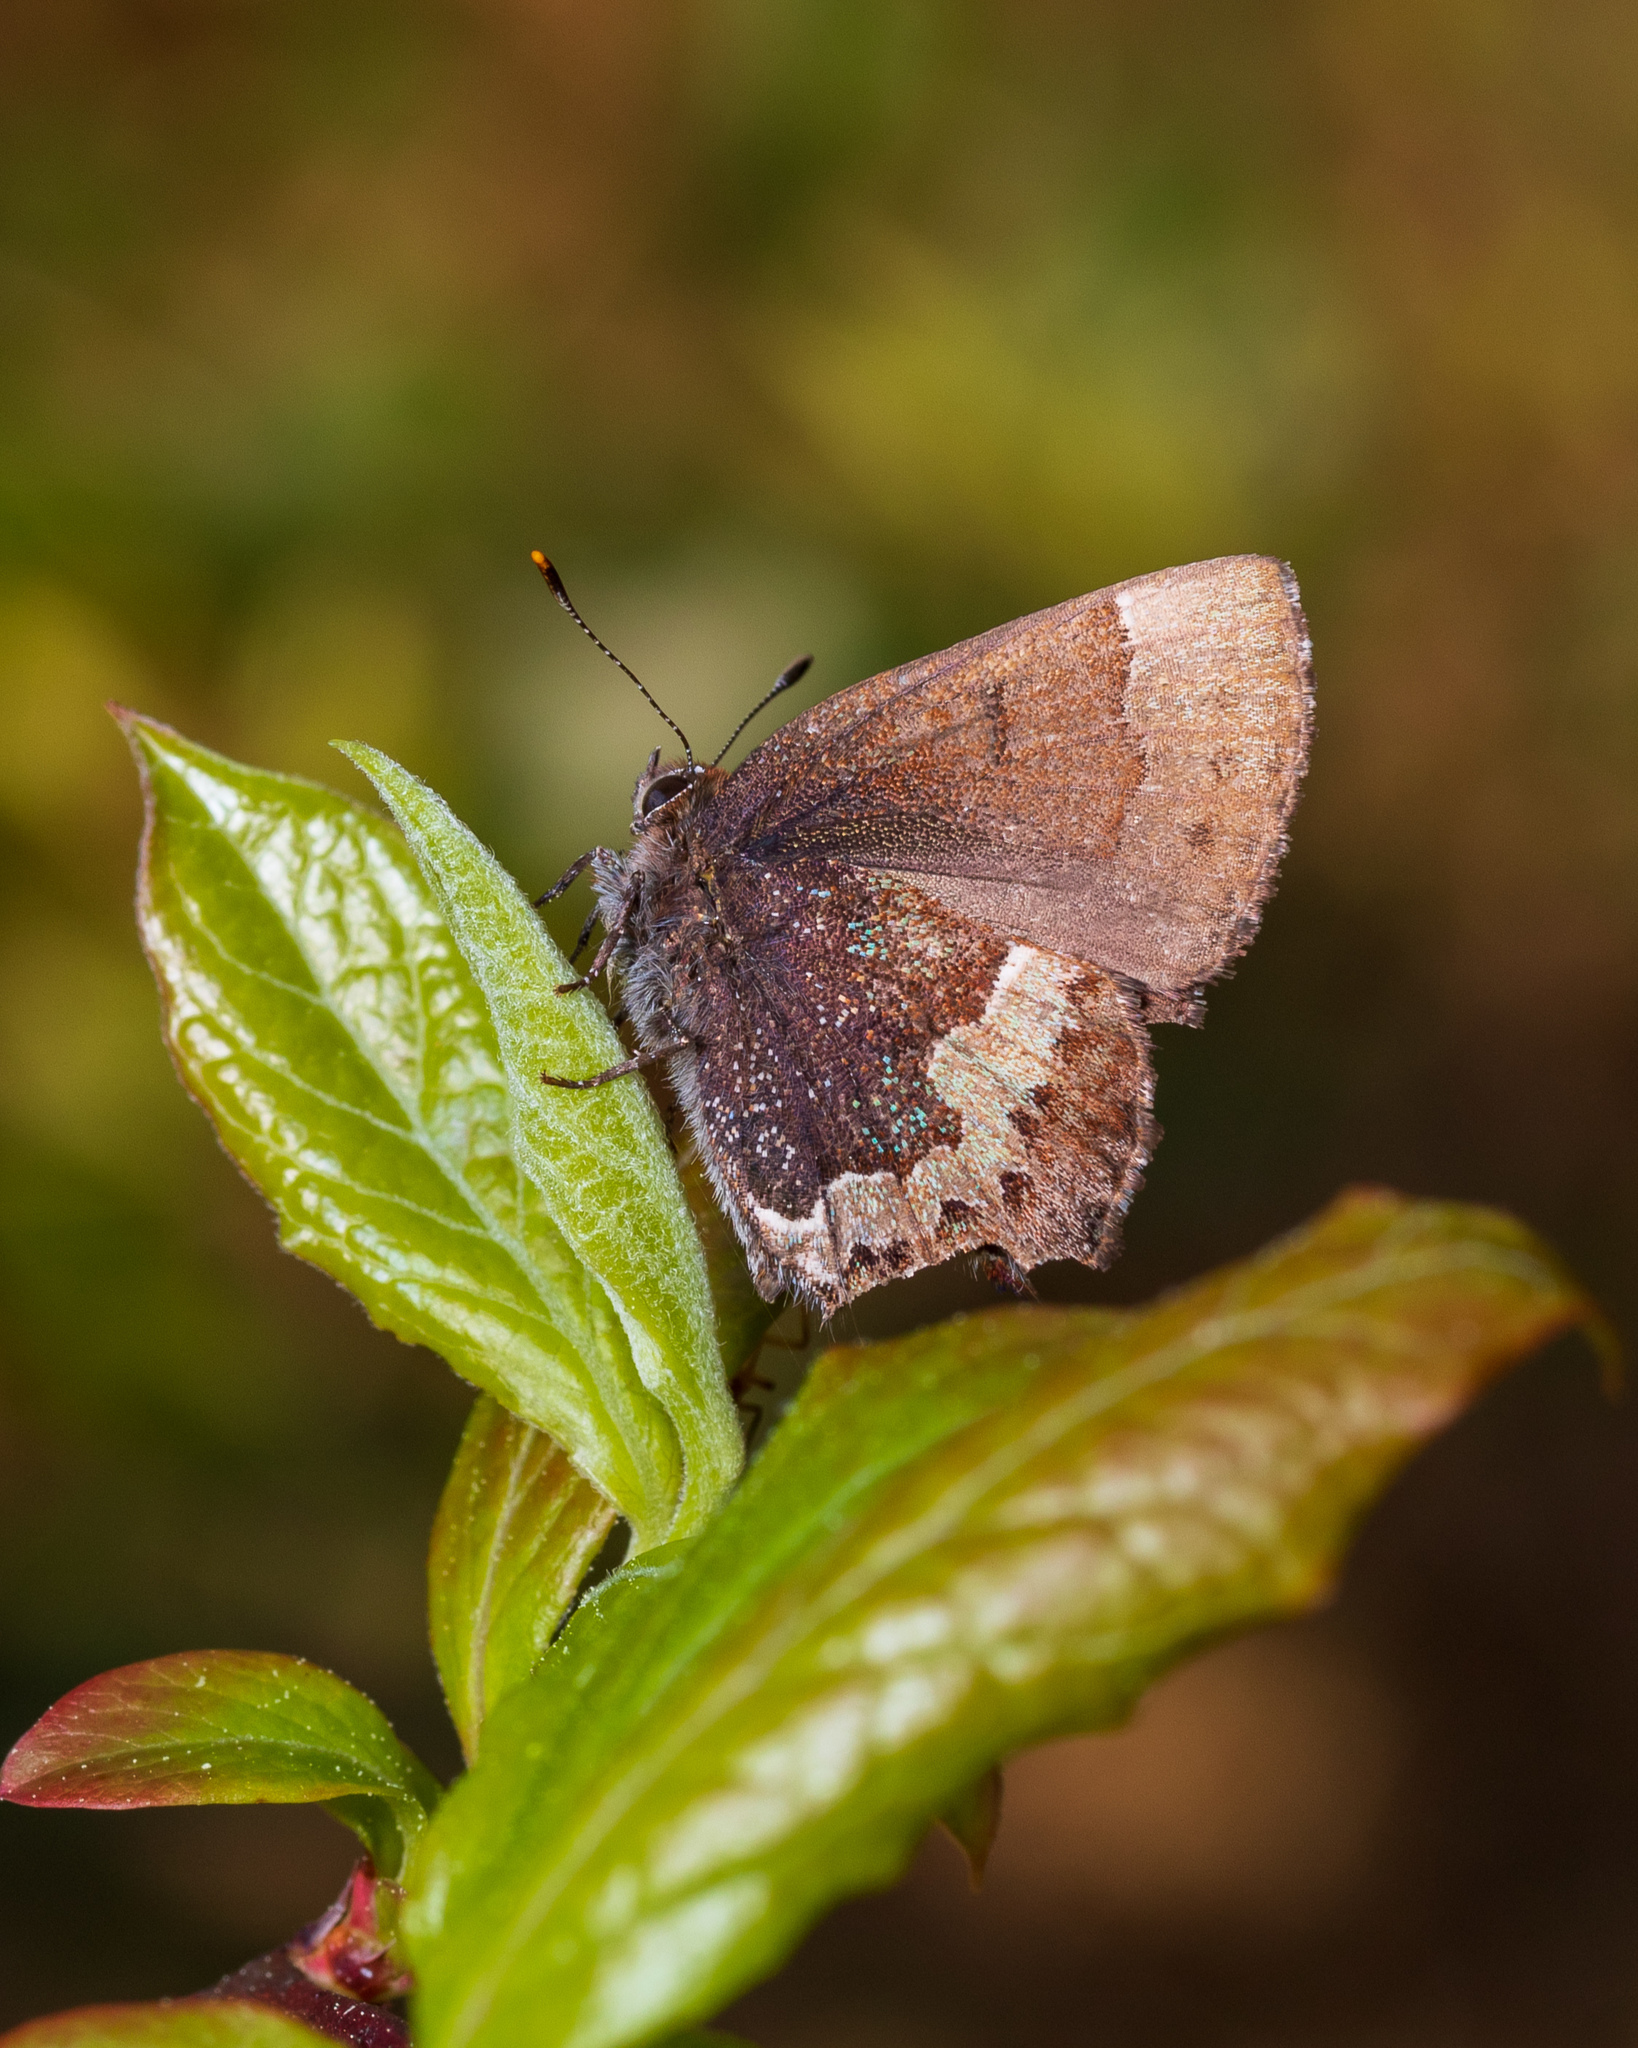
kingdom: Animalia
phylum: Arthropoda
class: Insecta
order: Lepidoptera
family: Lycaenidae
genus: Incisalia
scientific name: Incisalia henrici
